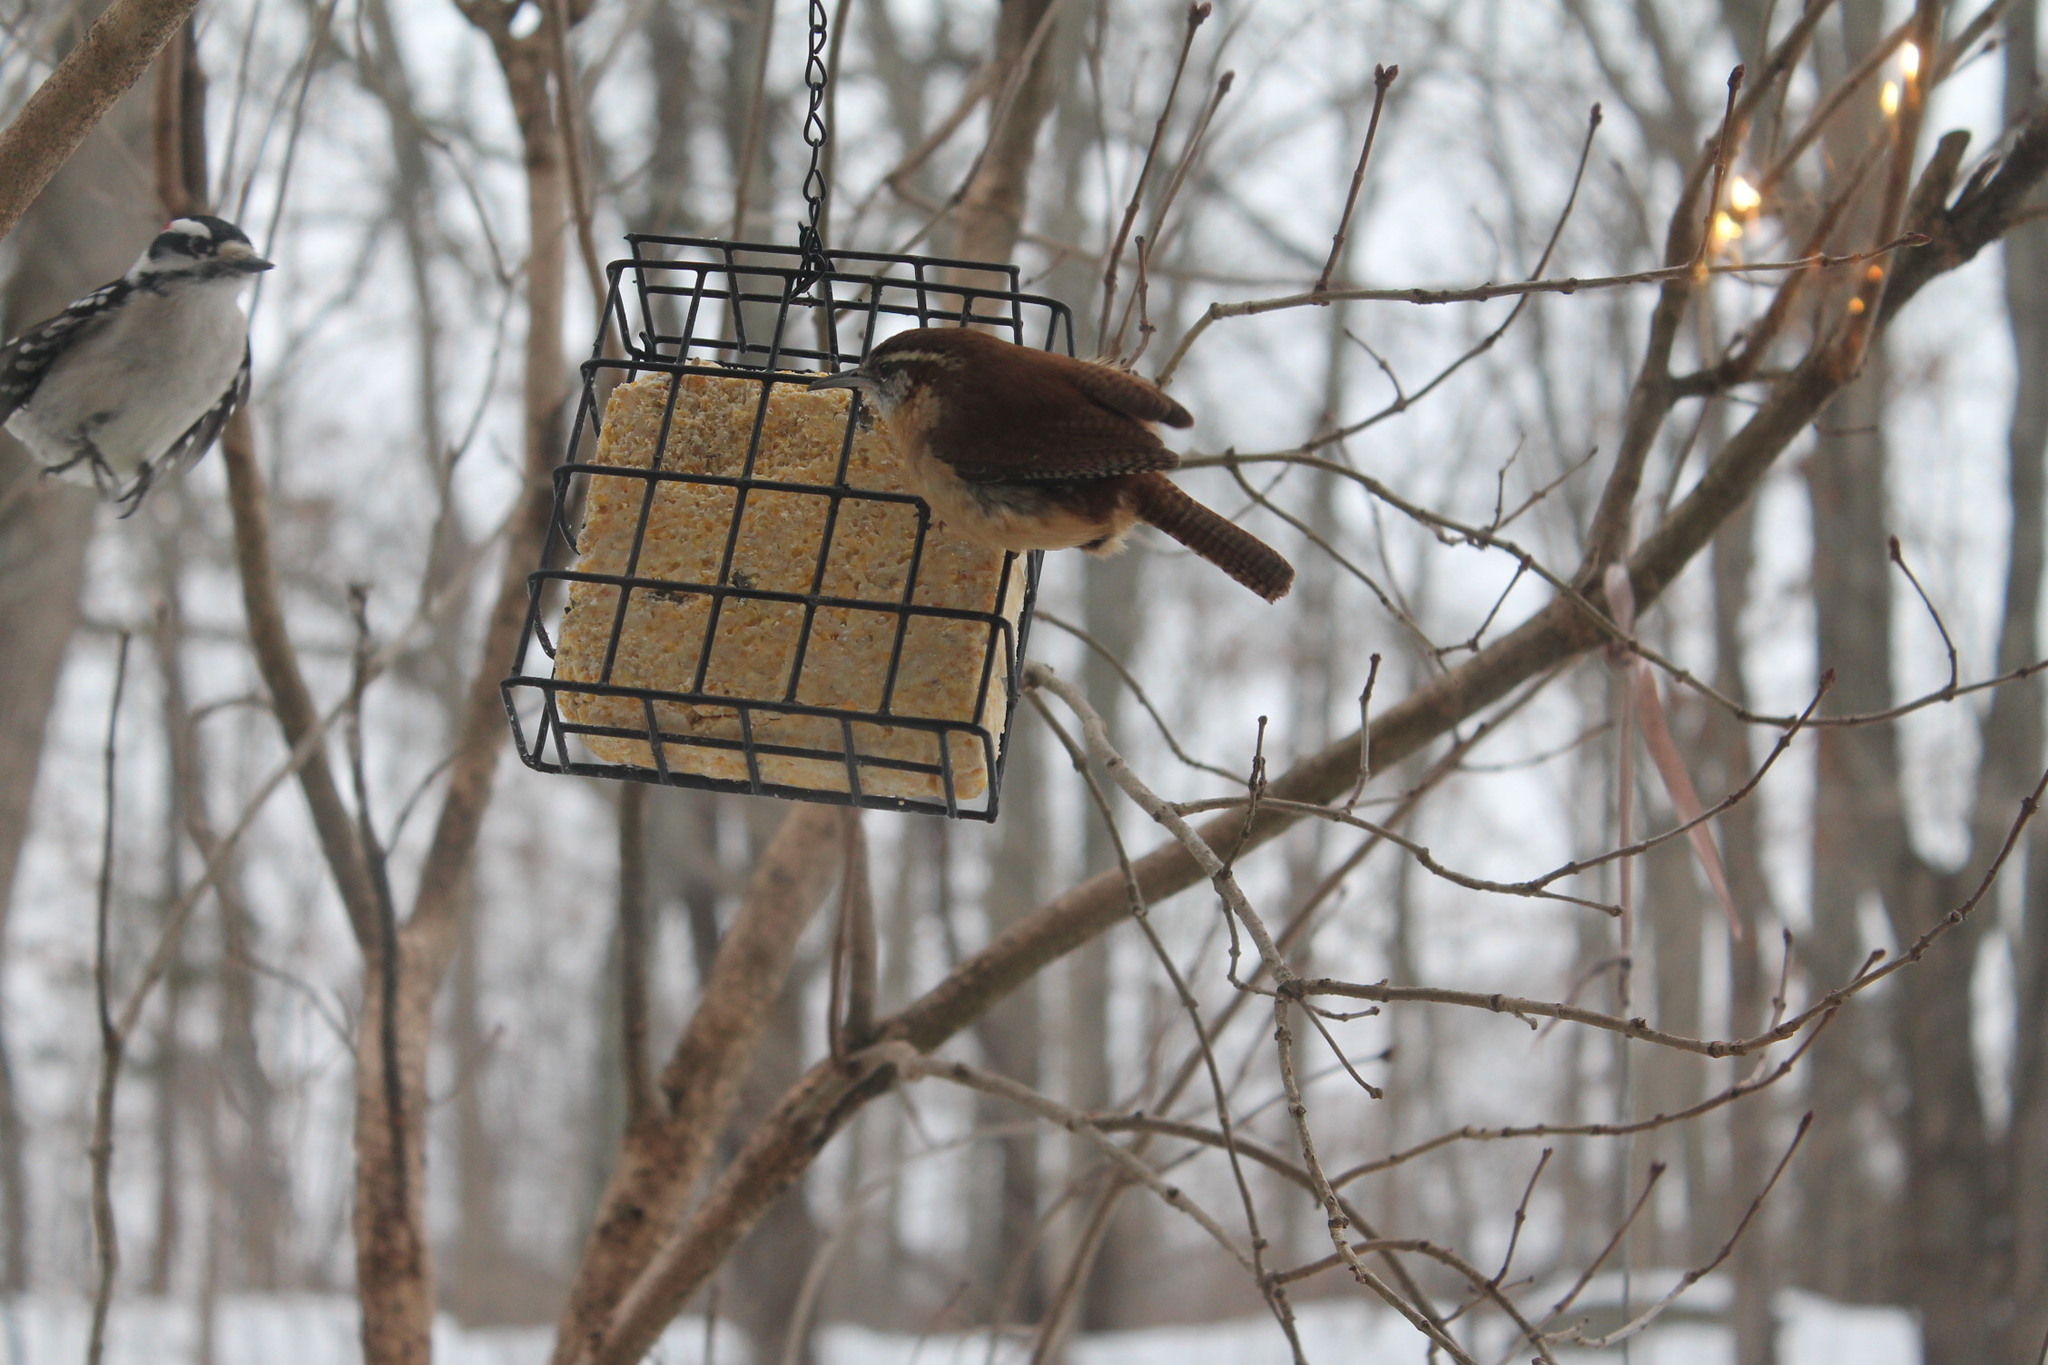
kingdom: Animalia
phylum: Chordata
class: Aves
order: Passeriformes
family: Troglodytidae
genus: Thryothorus
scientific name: Thryothorus ludovicianus
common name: Carolina wren
